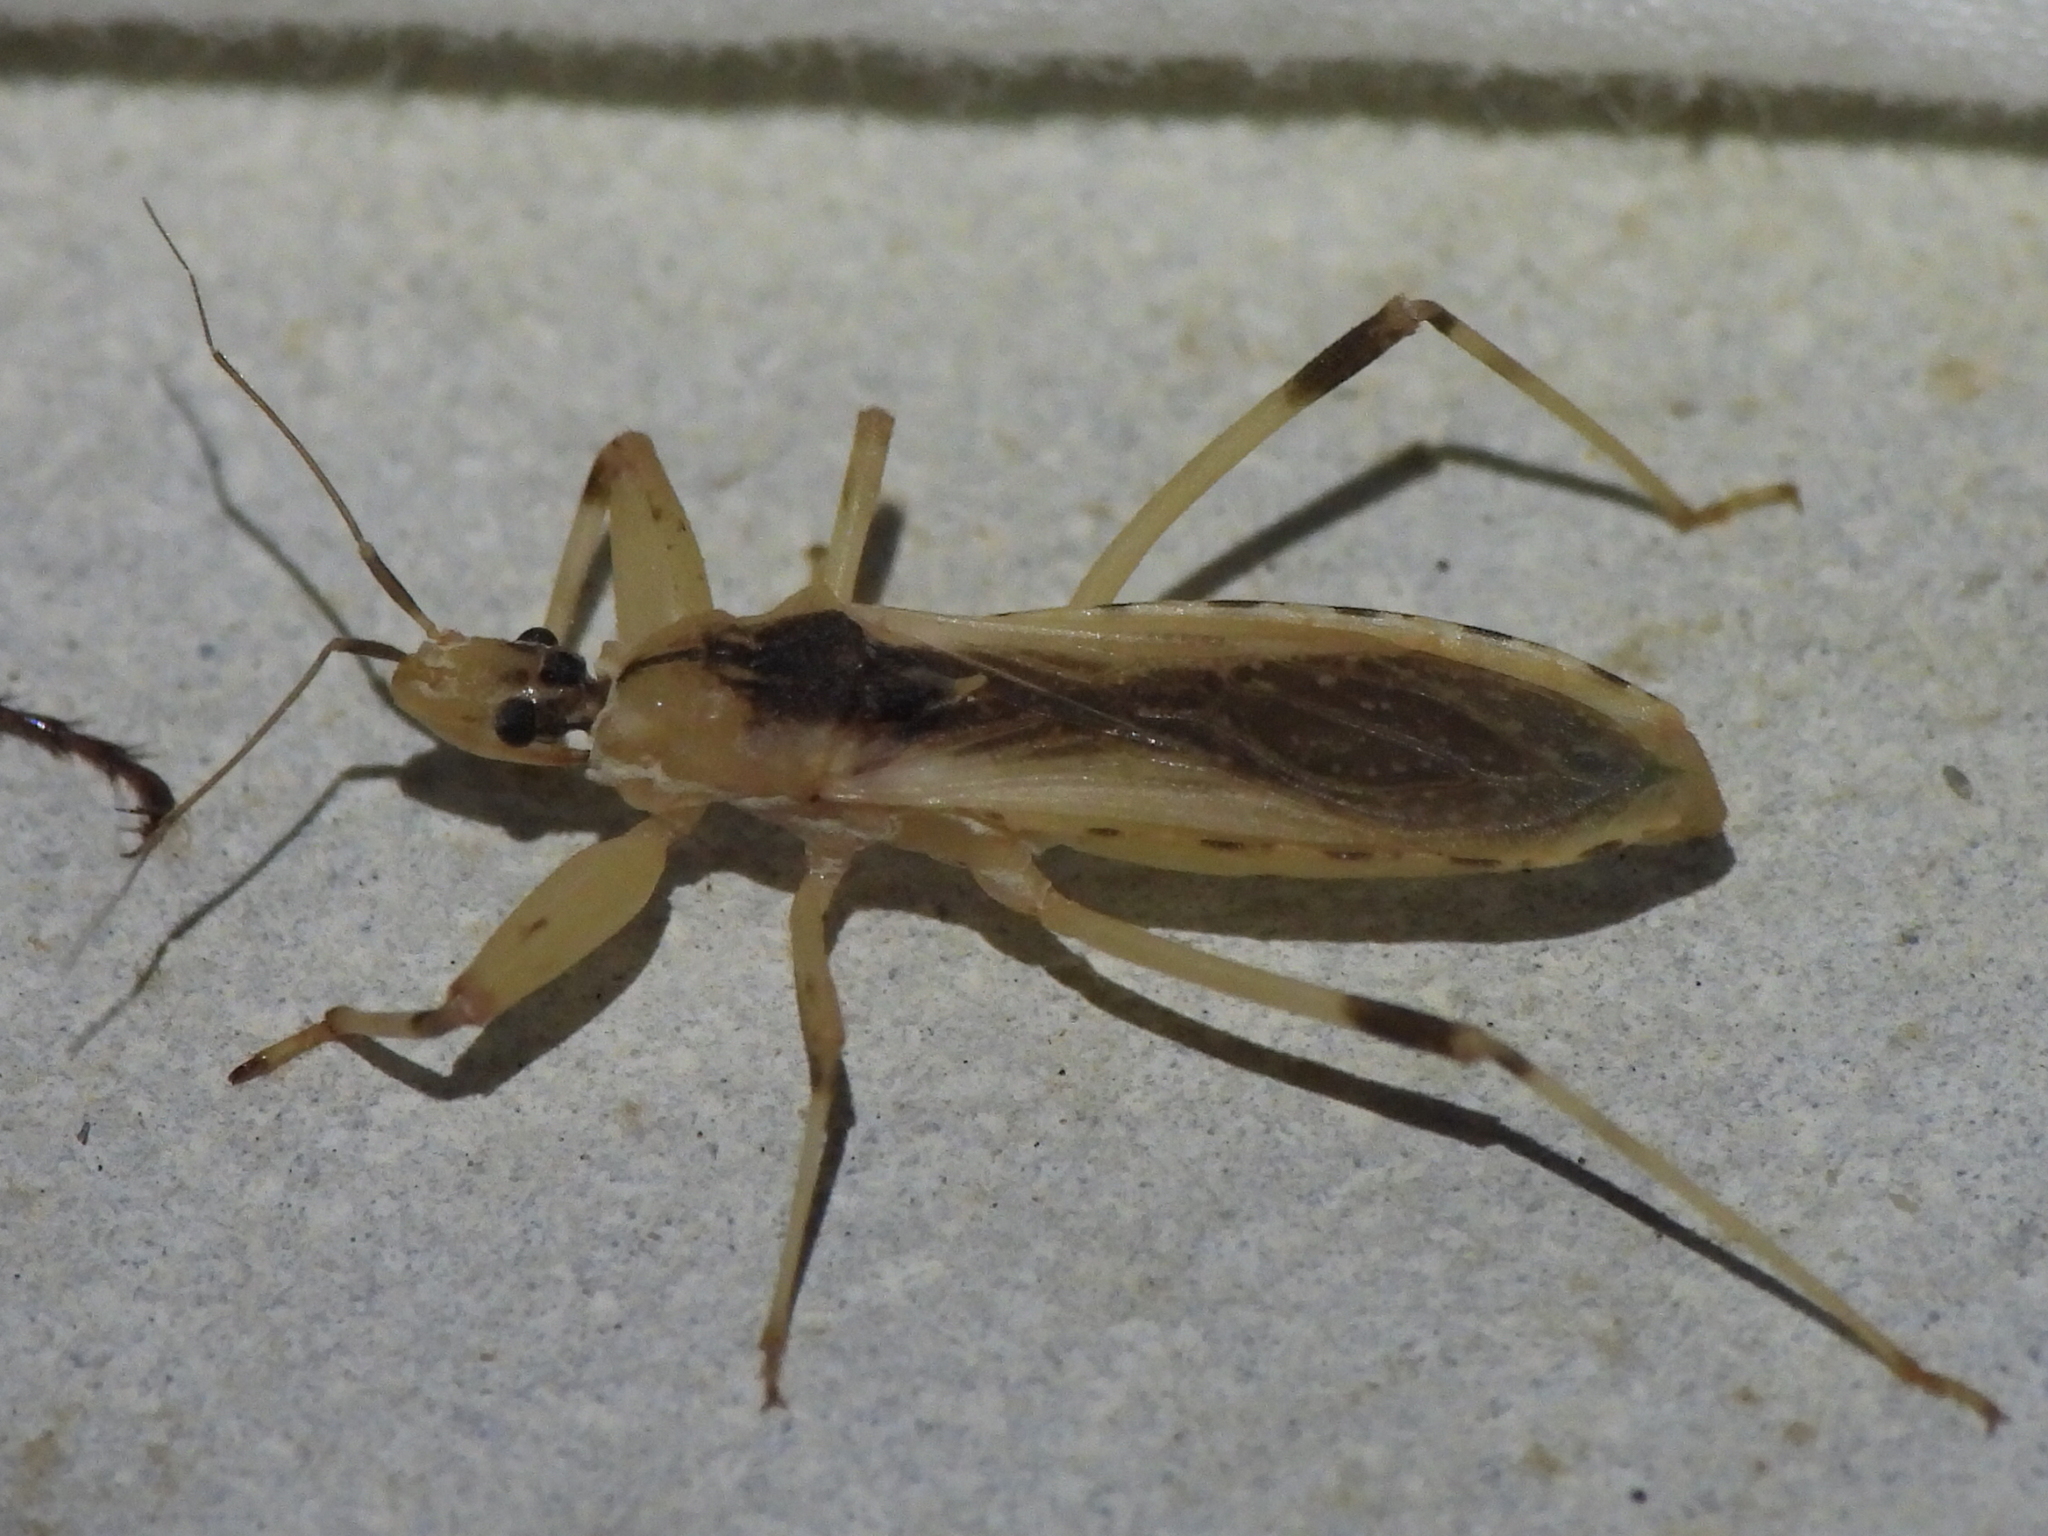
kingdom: Animalia
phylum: Arthropoda
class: Insecta
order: Hemiptera
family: Reduviidae
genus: Oncocephalus
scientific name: Oncocephalus nubilus
